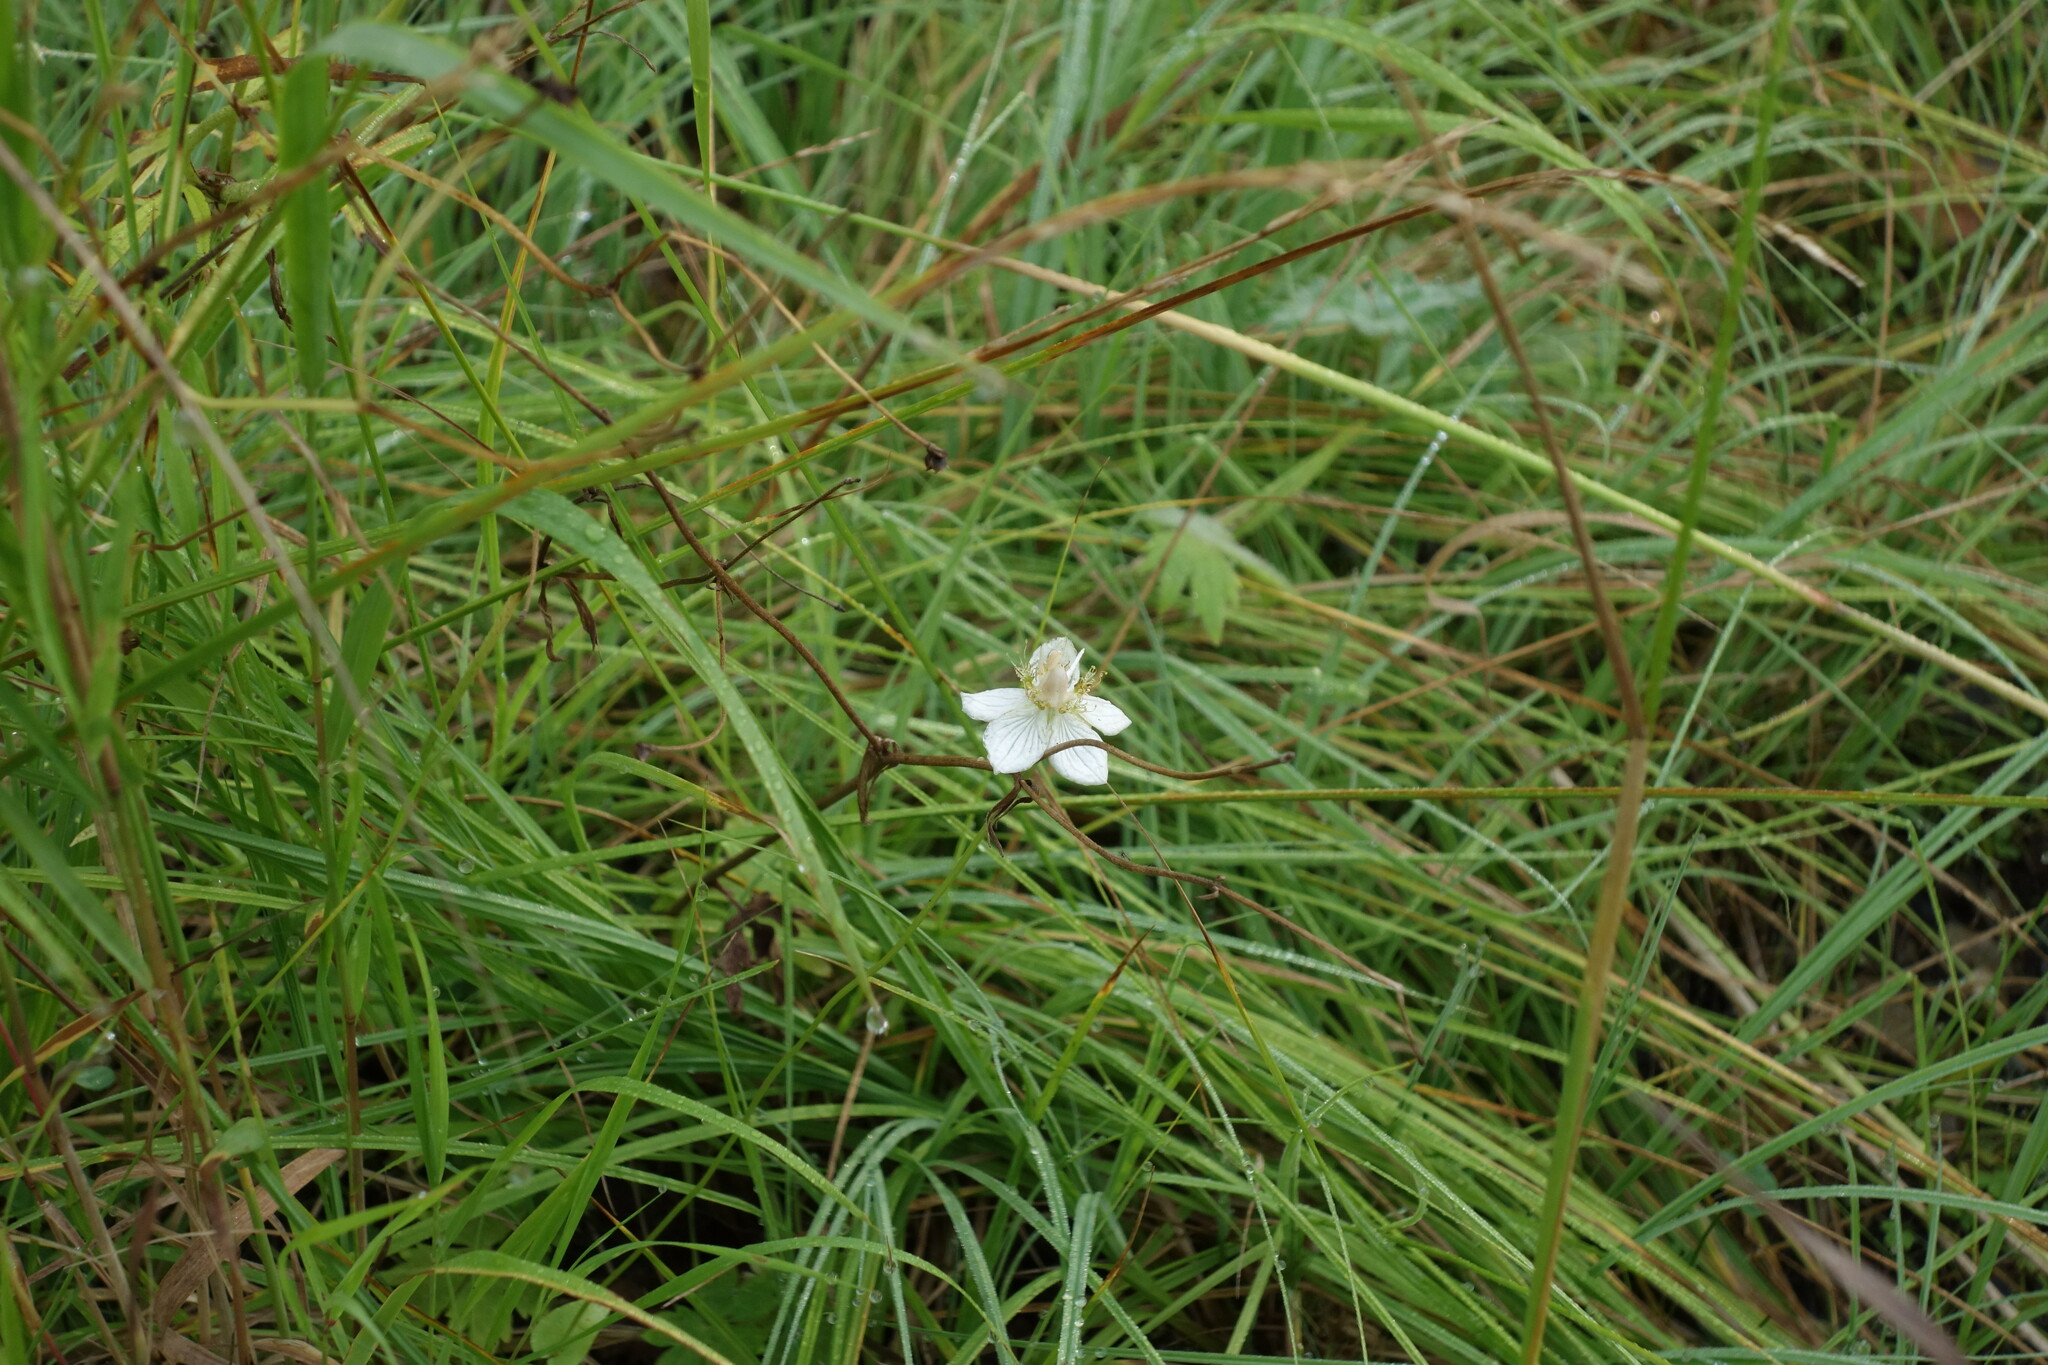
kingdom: Plantae
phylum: Tracheophyta
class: Magnoliopsida
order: Celastrales
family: Parnassiaceae
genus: Parnassia
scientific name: Parnassia palustris
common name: Grass-of-parnassus
